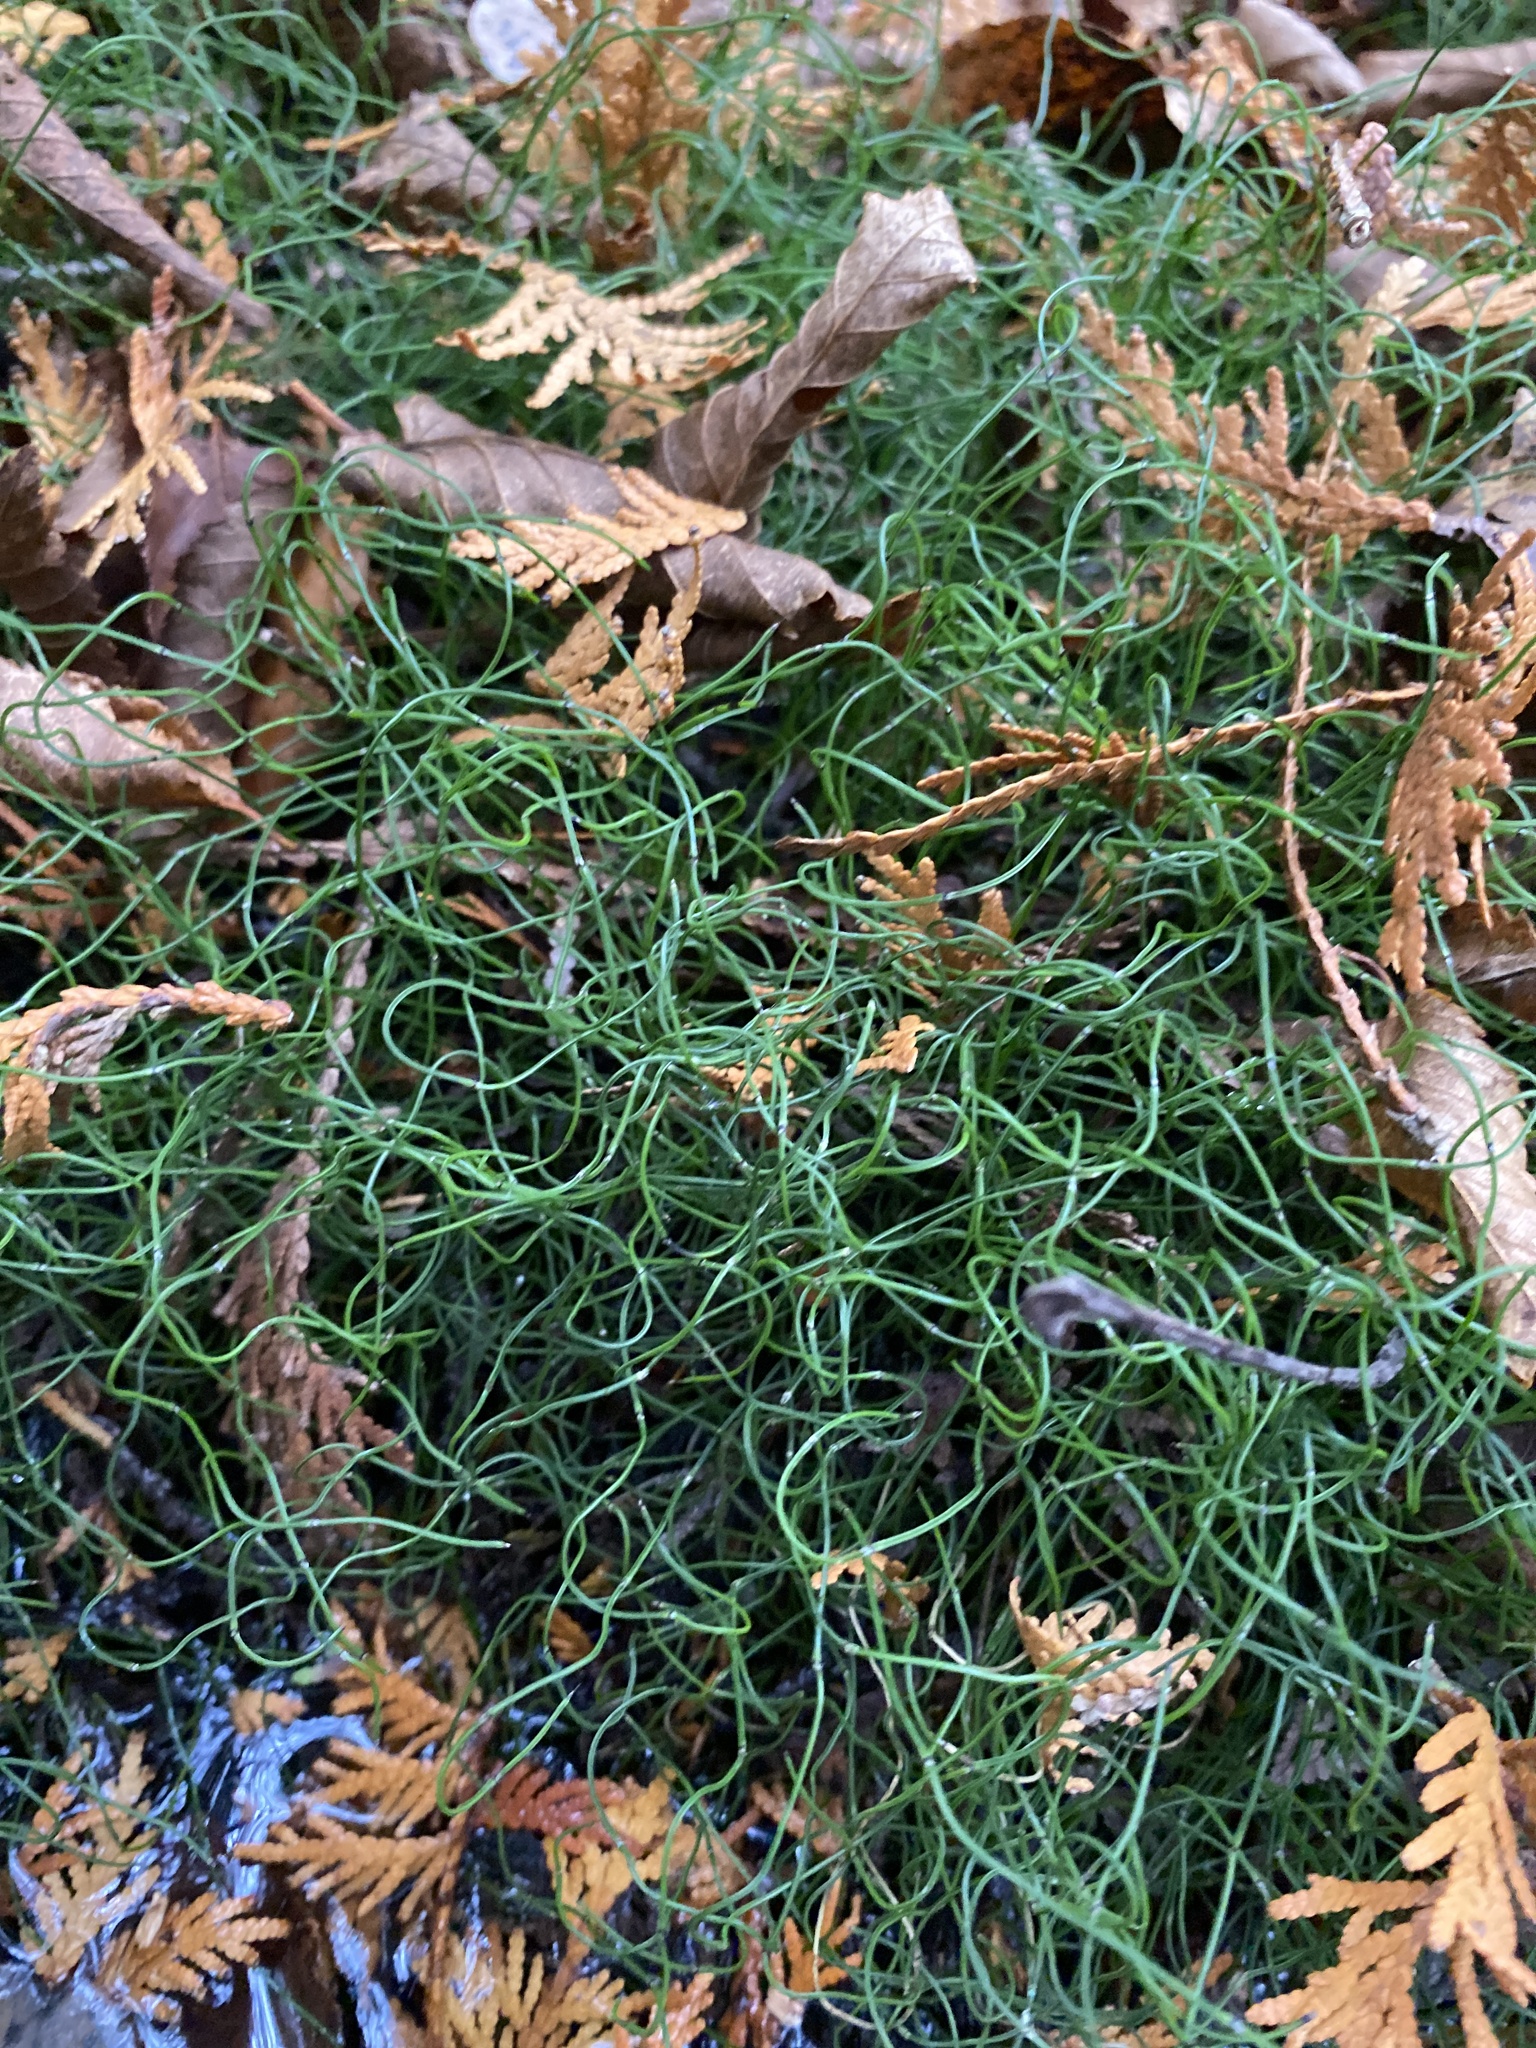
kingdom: Plantae
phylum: Tracheophyta
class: Polypodiopsida
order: Equisetales
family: Equisetaceae
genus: Equisetum
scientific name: Equisetum scirpoides
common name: Delicate horsetail
